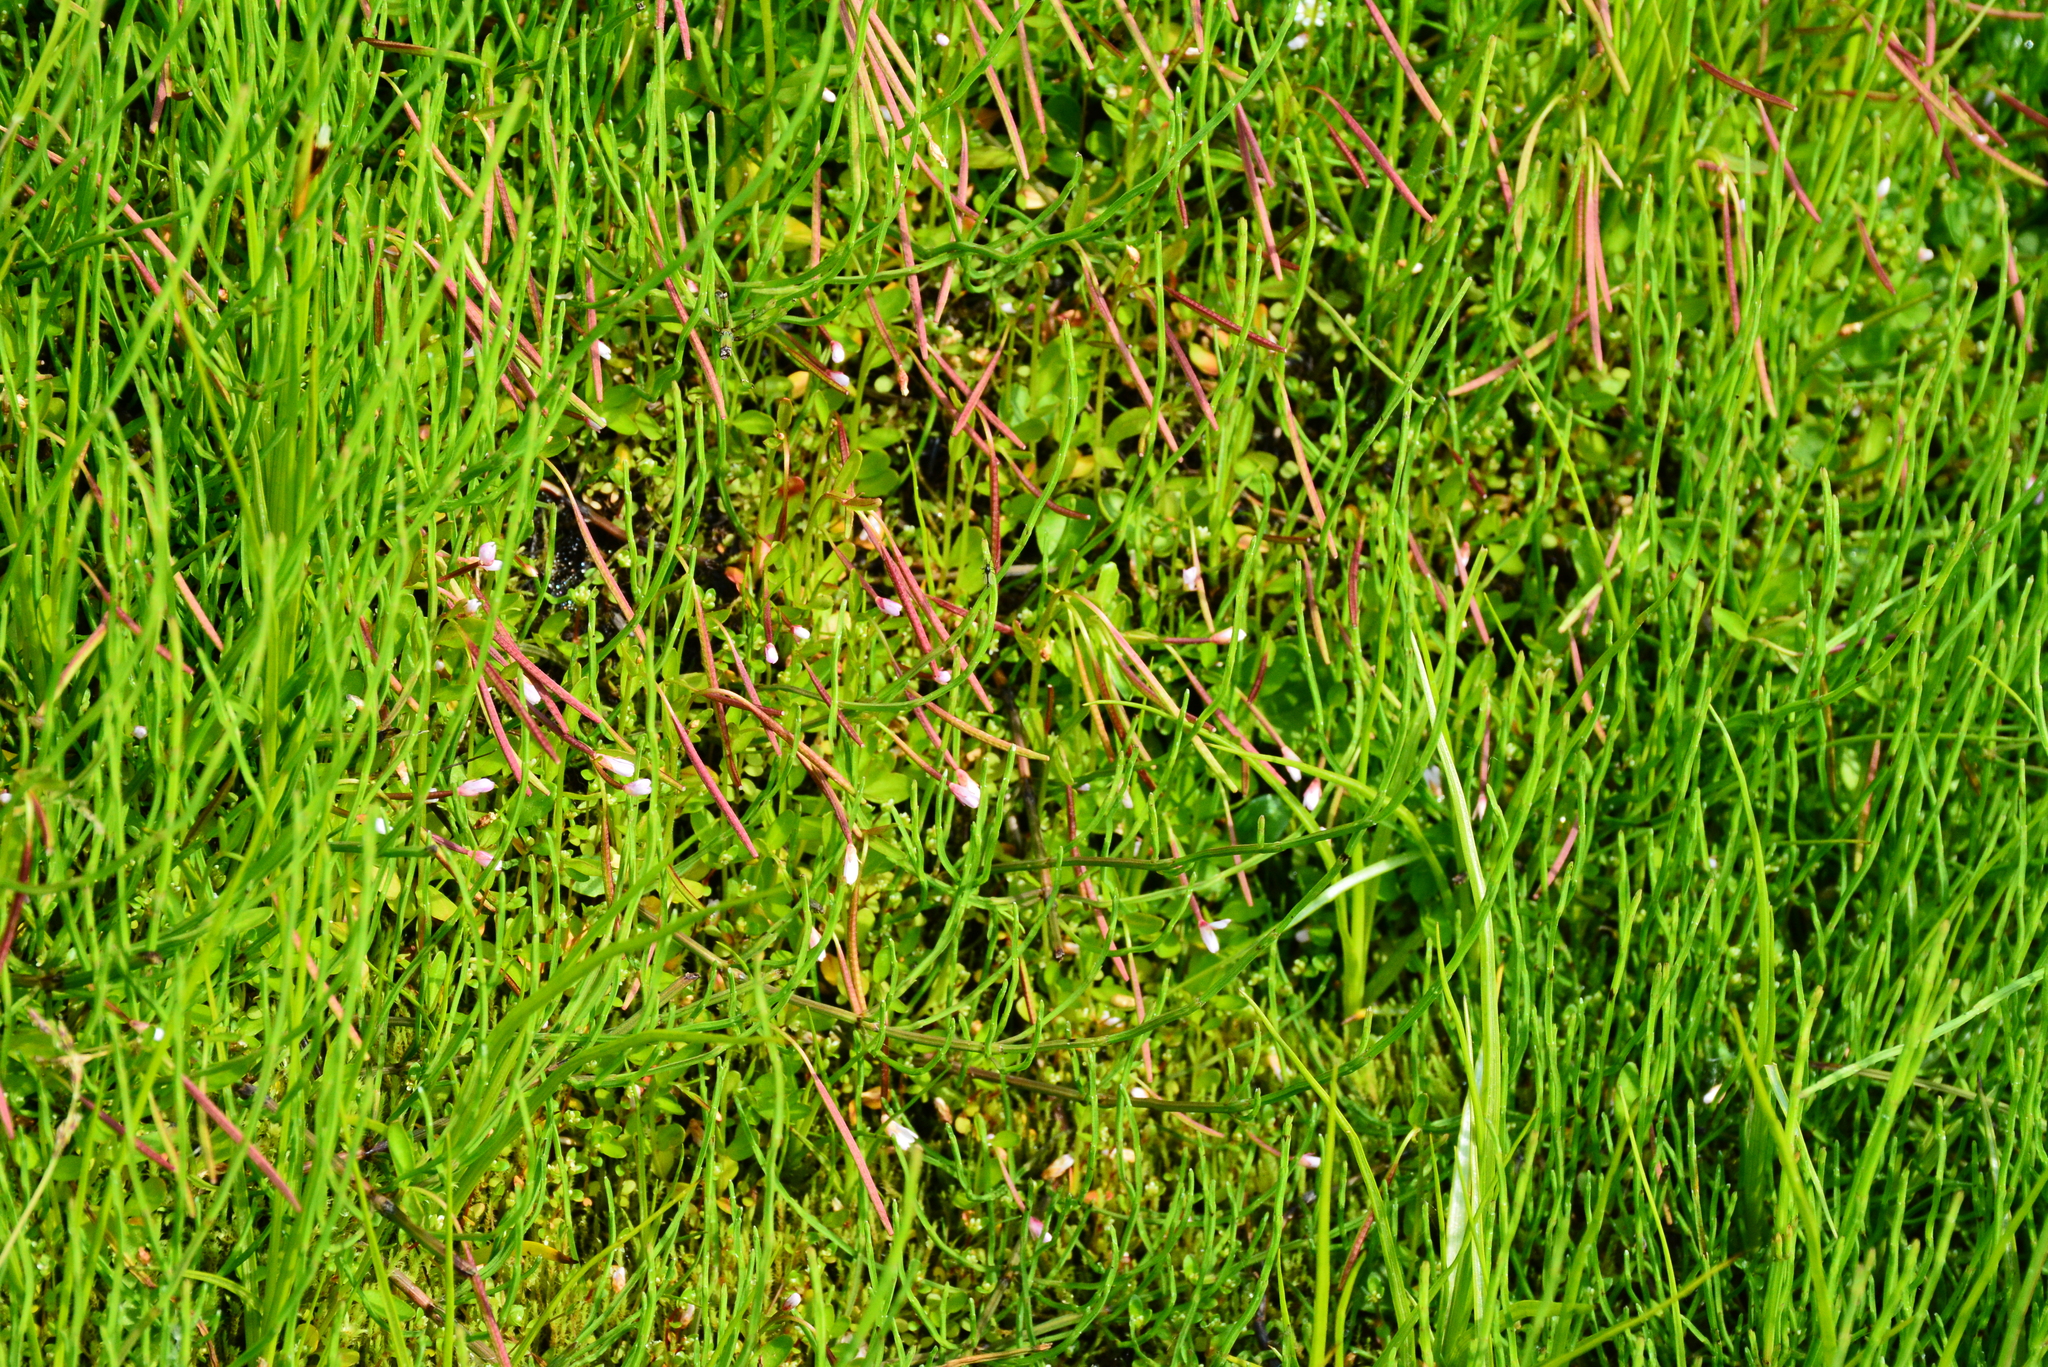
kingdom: Plantae
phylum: Tracheophyta
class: Magnoliopsida
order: Myrtales
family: Onagraceae
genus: Epilobium
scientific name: Epilobium palustre
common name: Marsh willowherb
